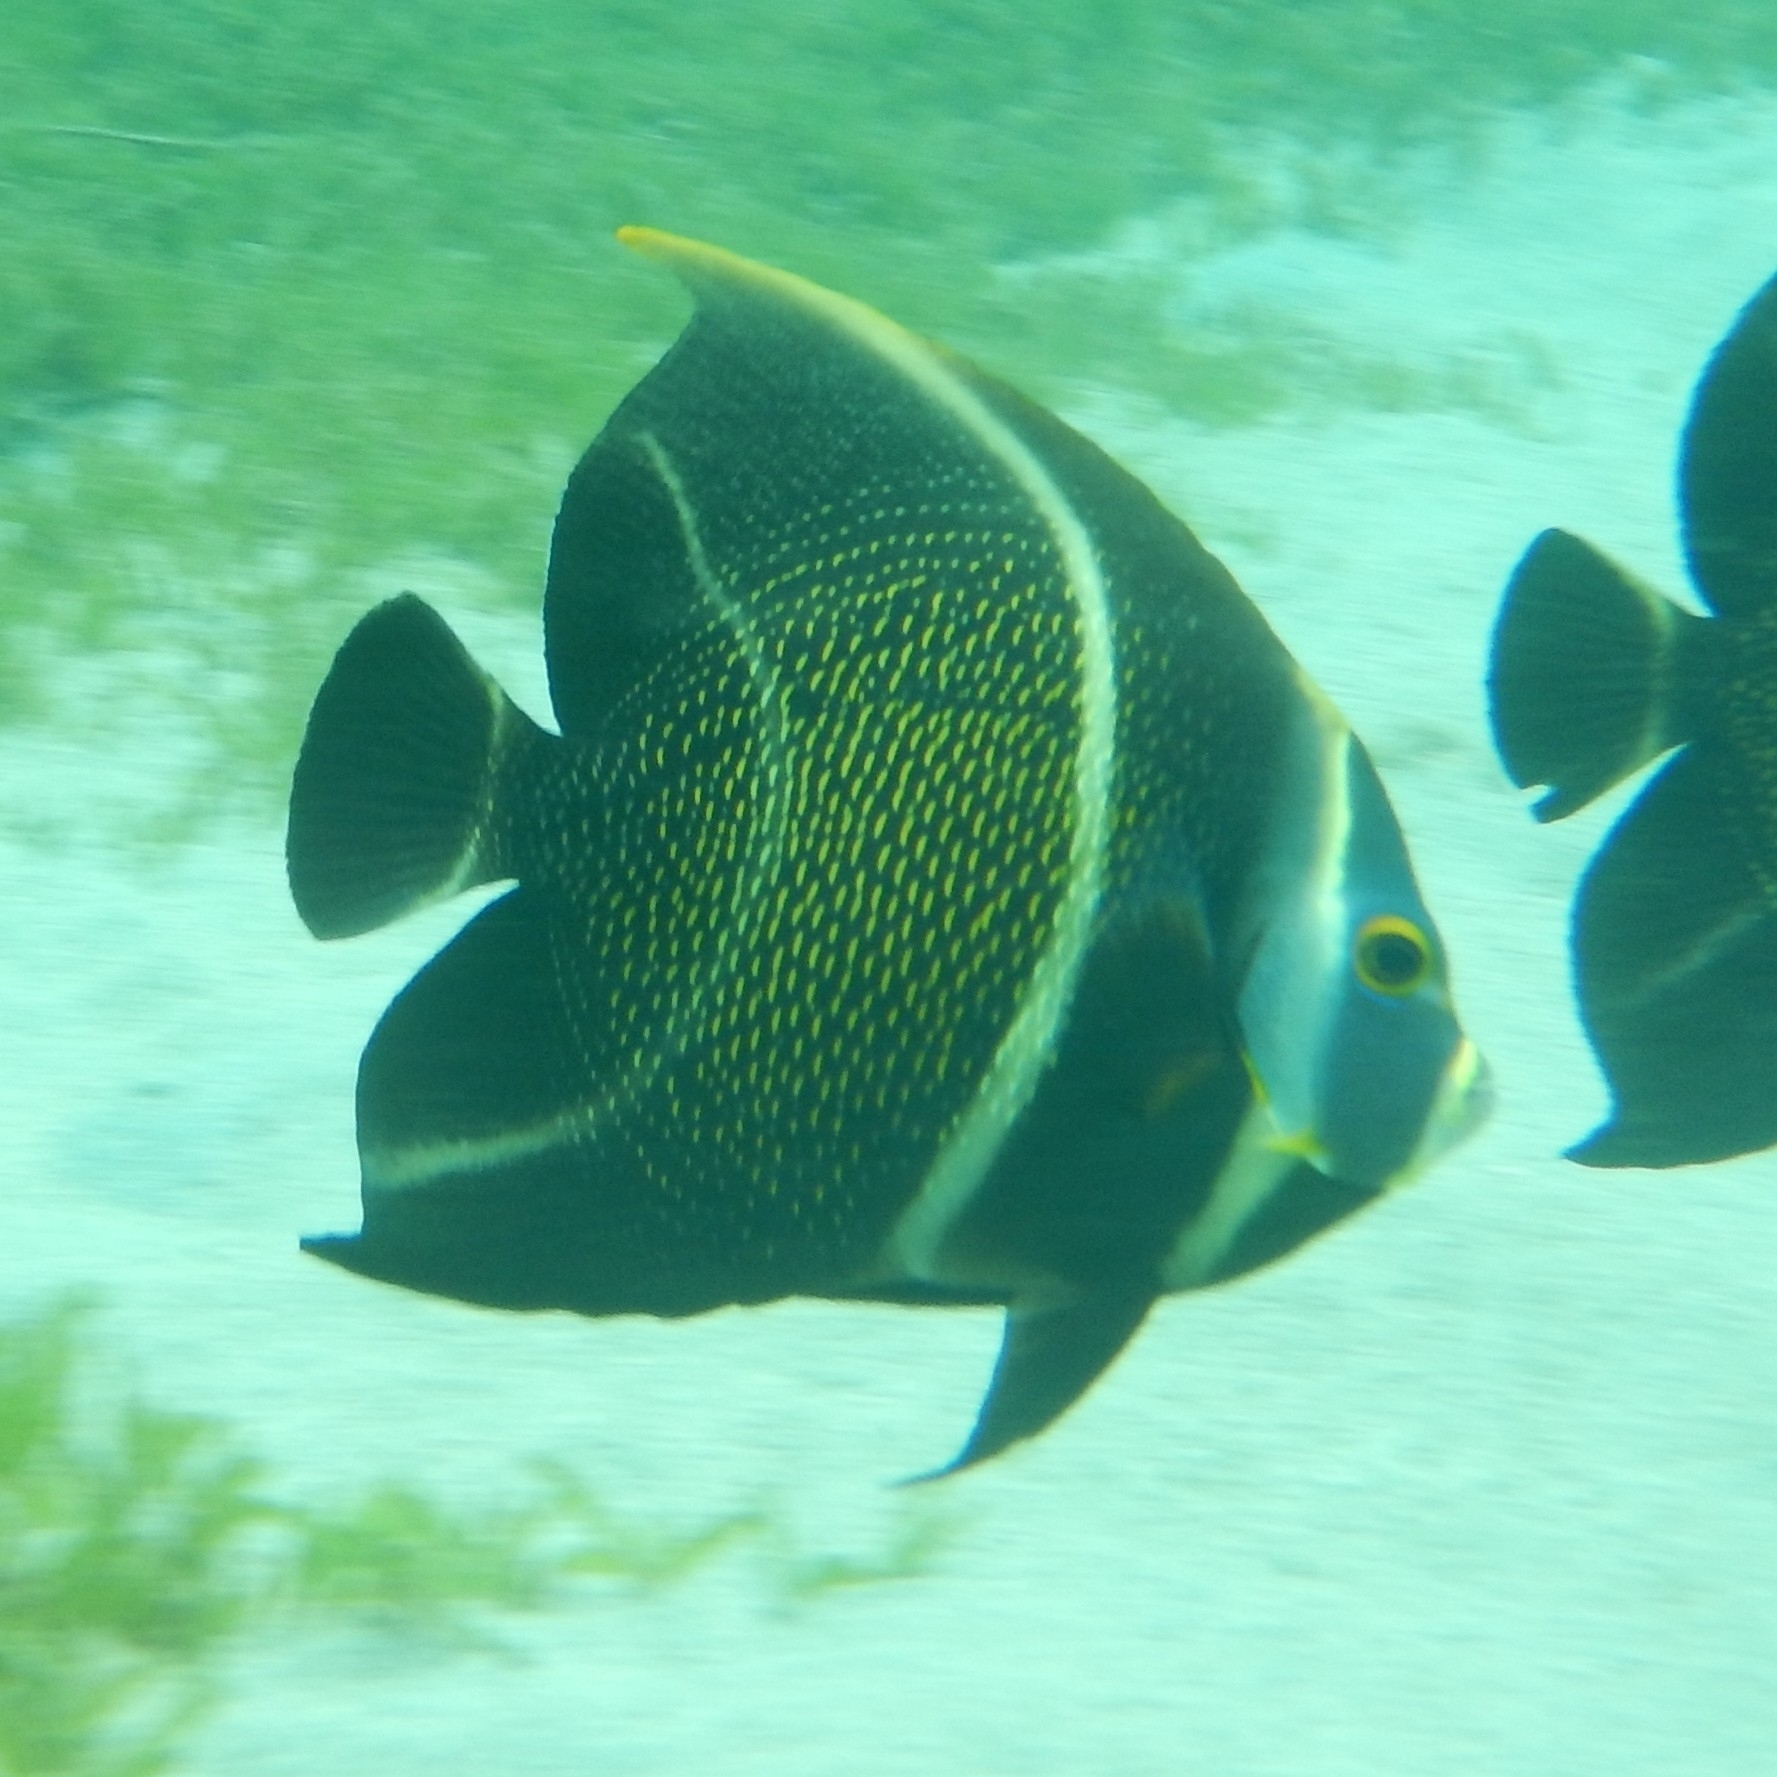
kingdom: Animalia
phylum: Chordata
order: Perciformes
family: Pomacanthidae
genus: Pomacanthus
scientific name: Pomacanthus paru
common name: French angelfish
